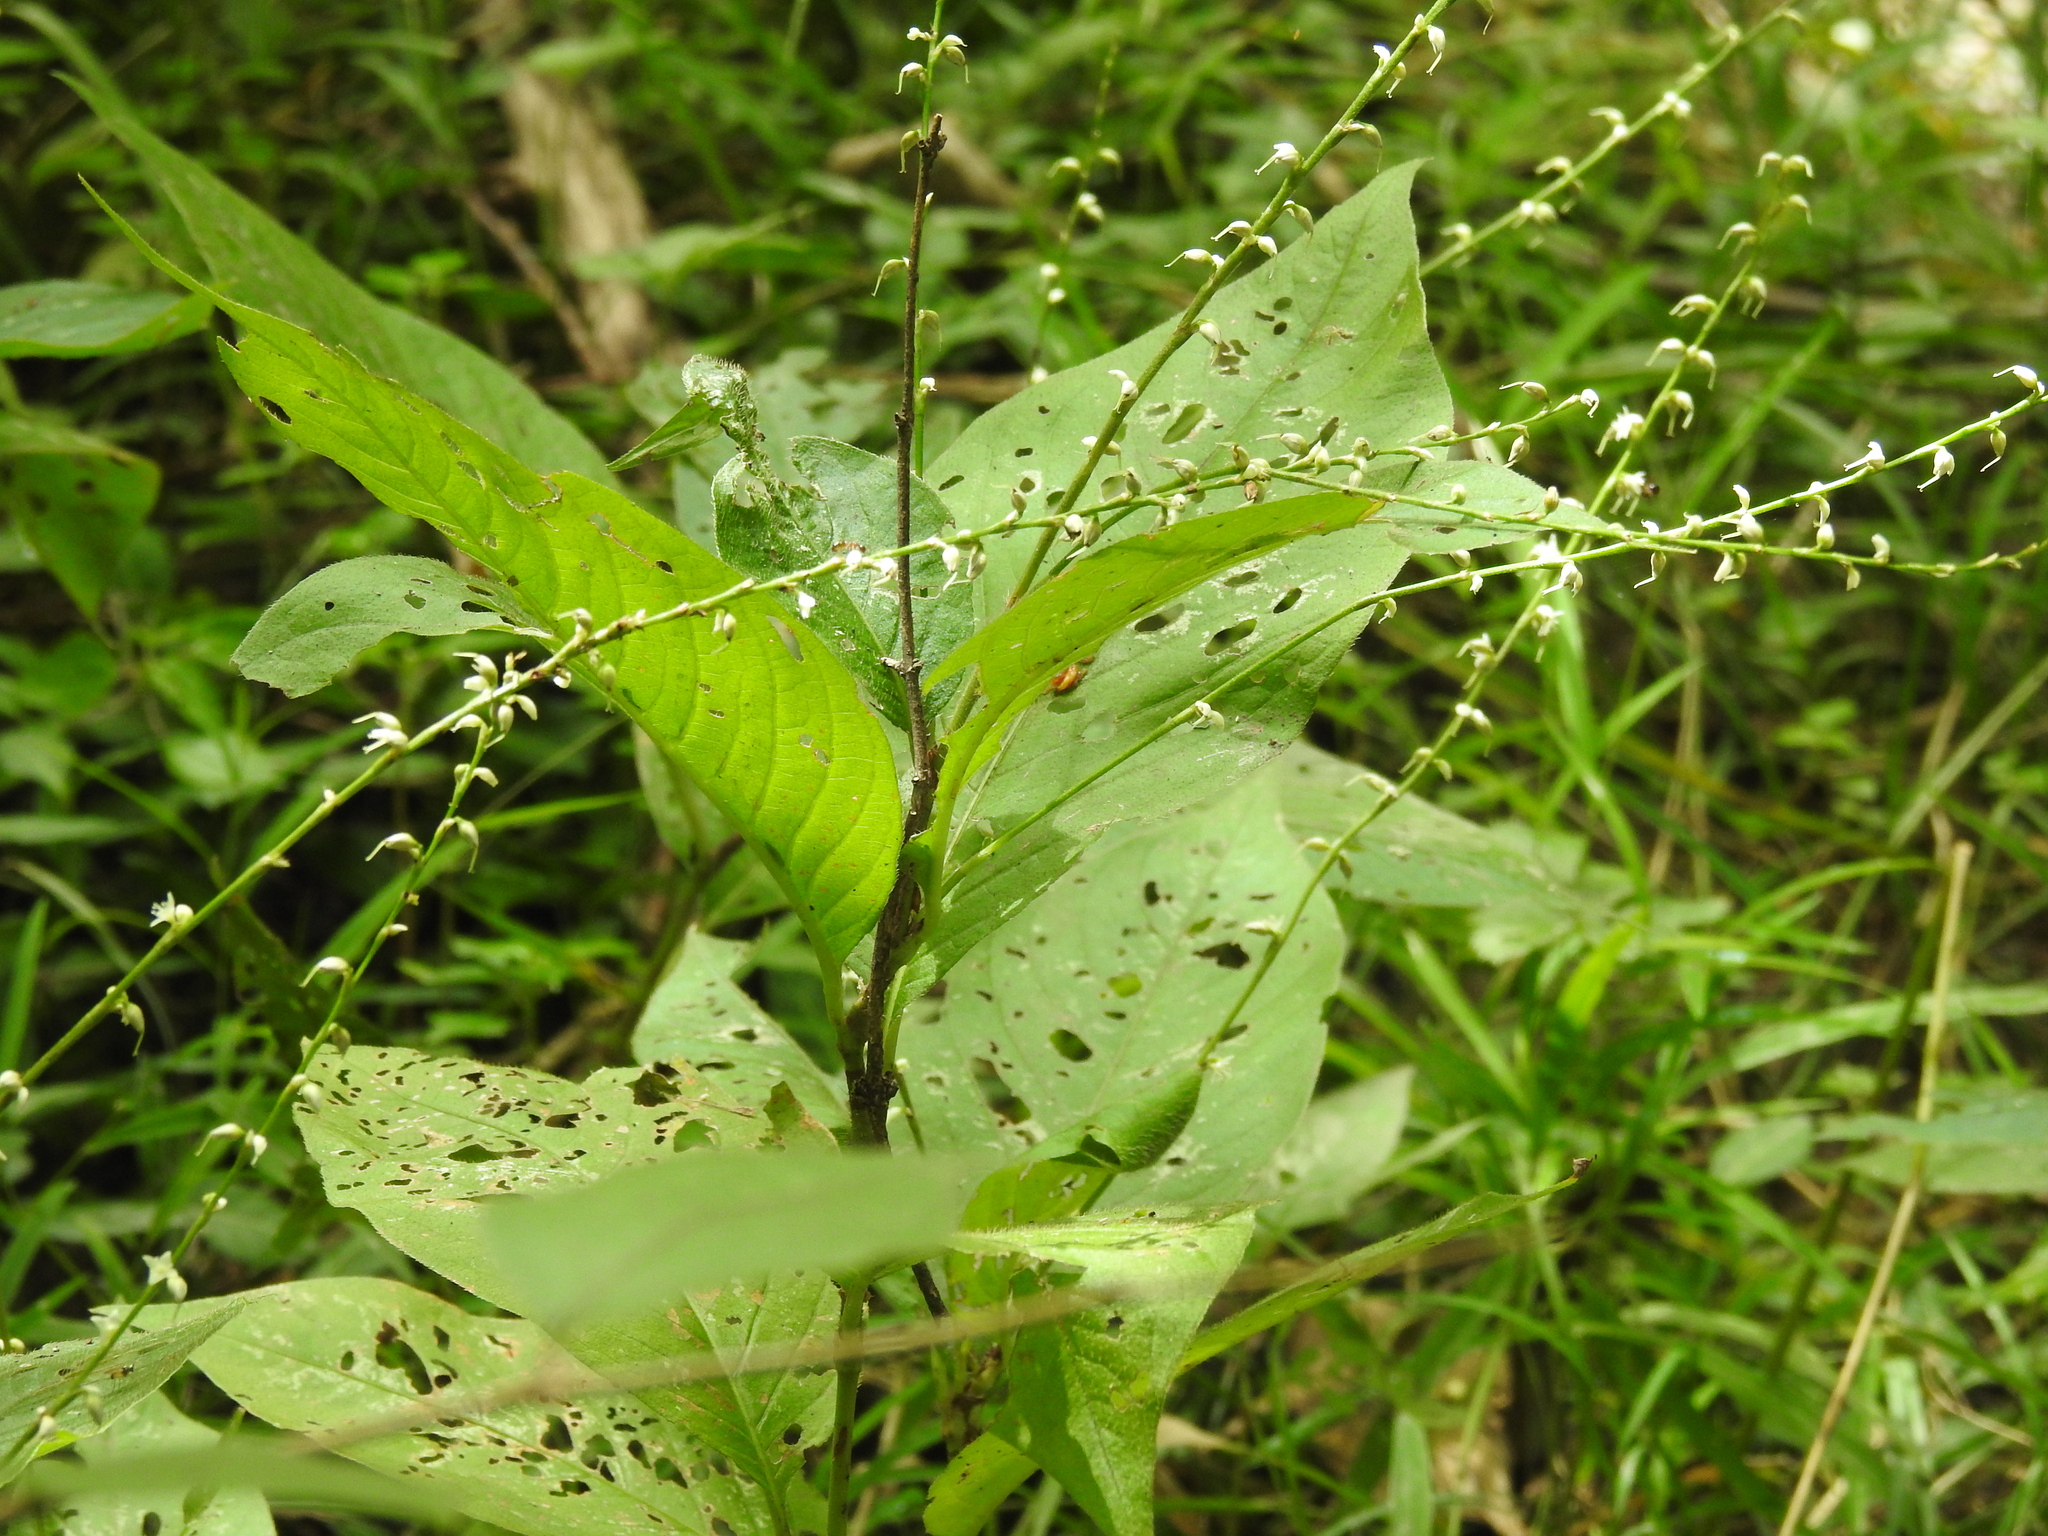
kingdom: Plantae
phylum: Tracheophyta
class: Magnoliopsida
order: Caryophyllales
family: Polygonaceae
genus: Persicaria
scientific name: Persicaria virginiana
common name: Jumpseed
